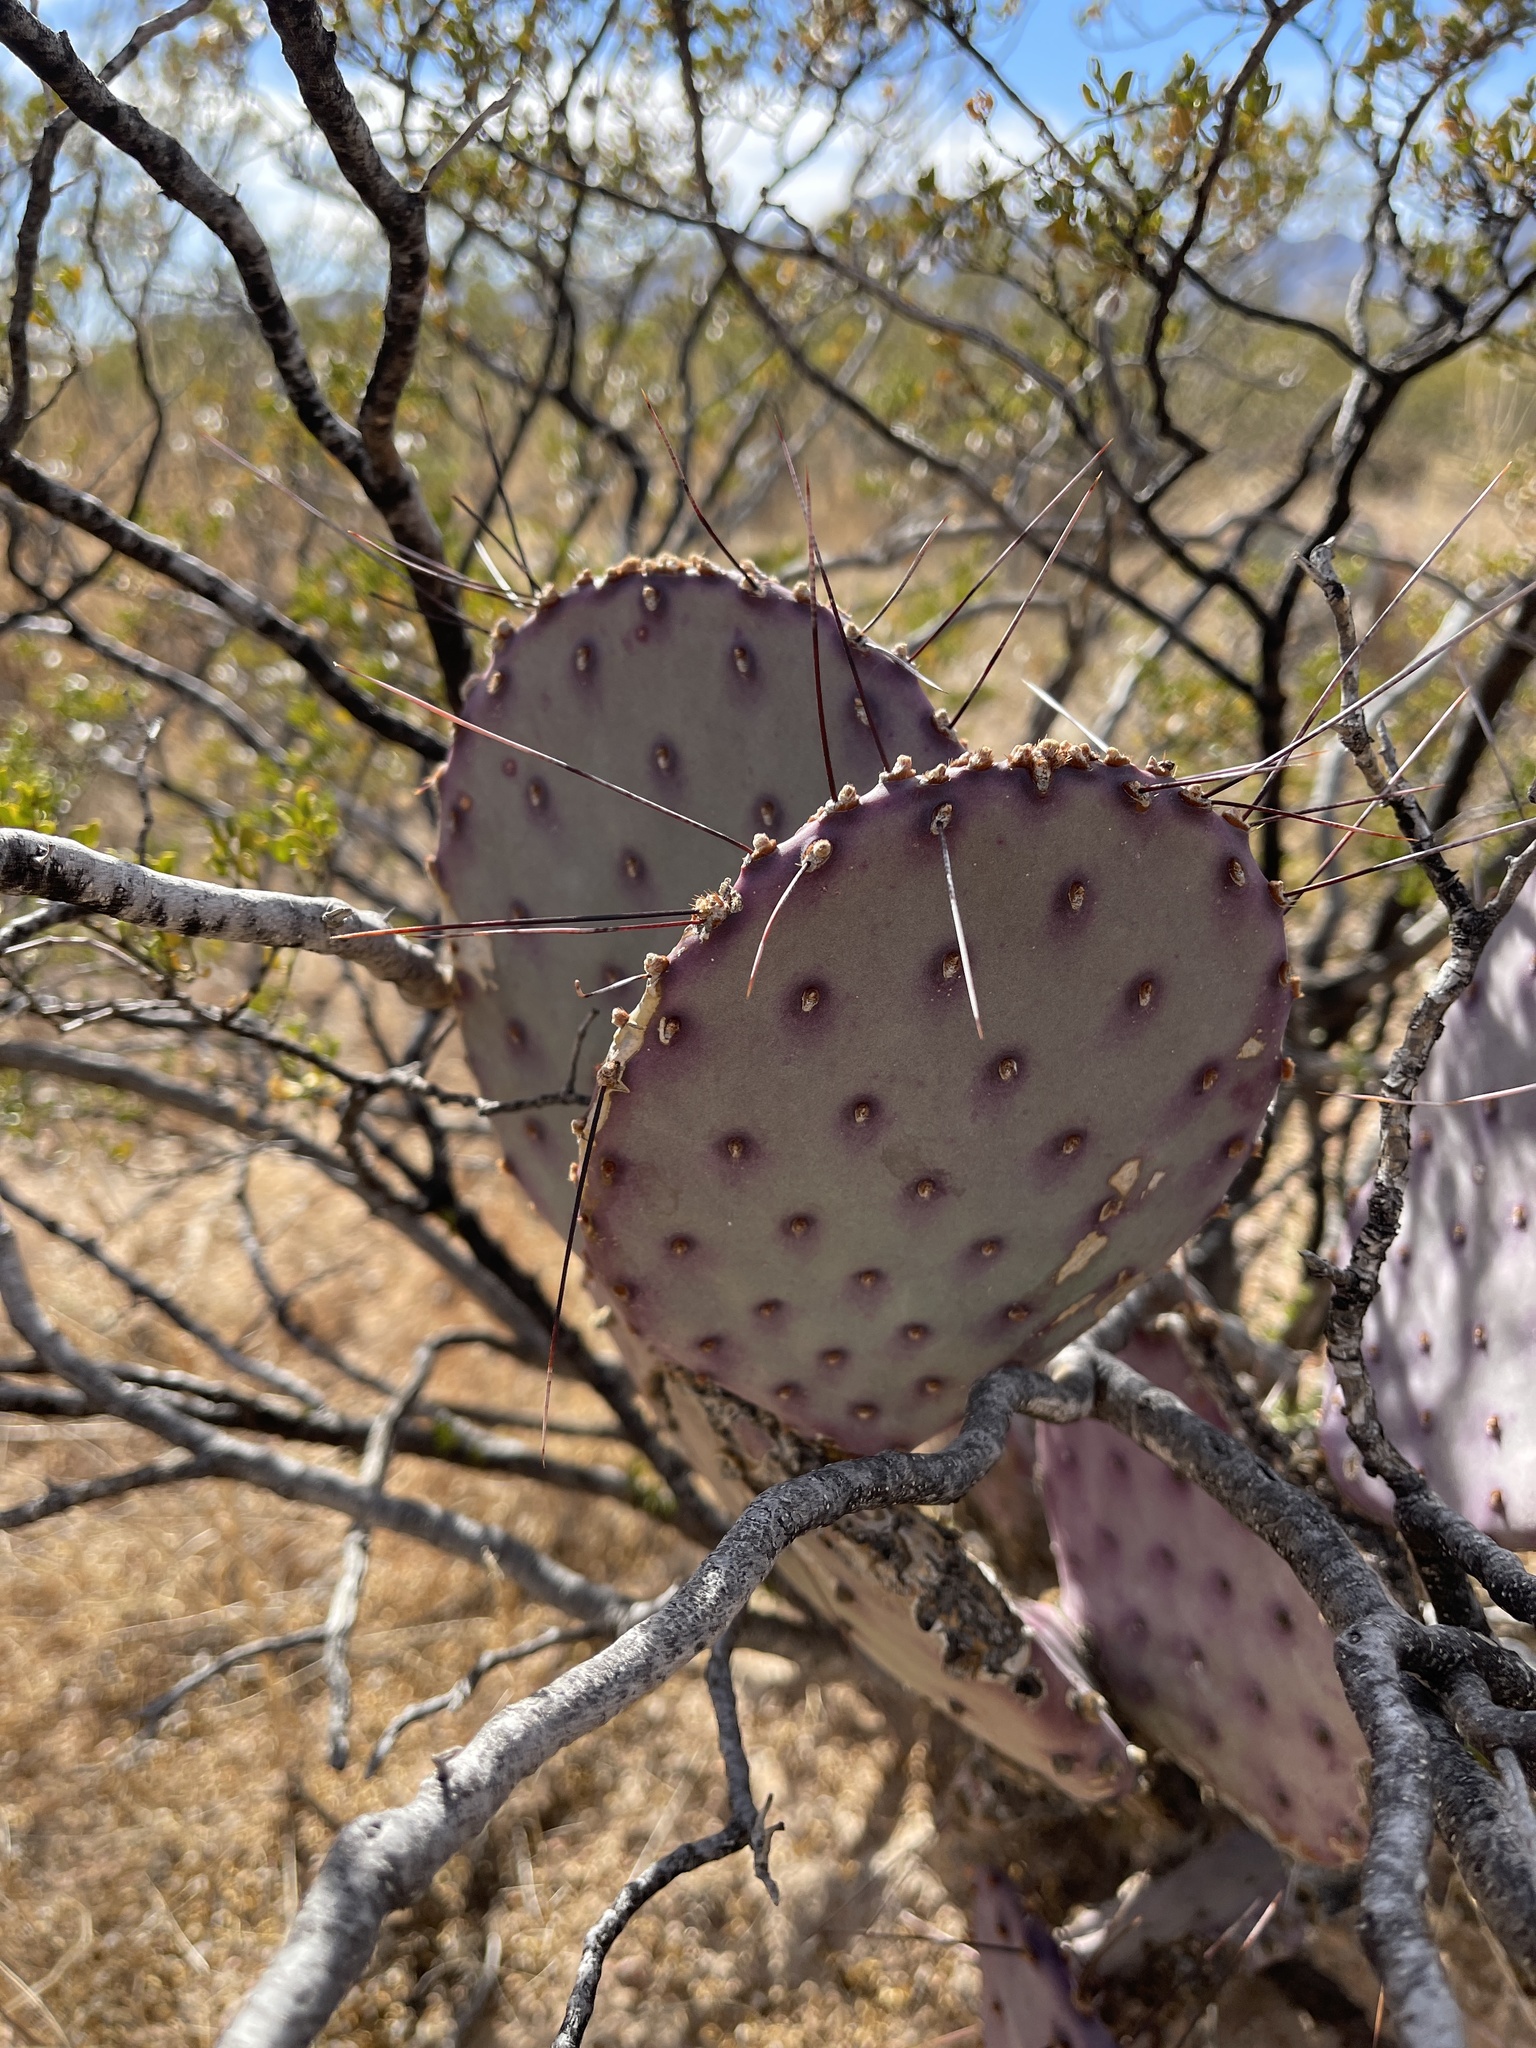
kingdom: Plantae
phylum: Tracheophyta
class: Magnoliopsida
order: Caryophyllales
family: Cactaceae
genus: Opuntia
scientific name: Opuntia macrocentra
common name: Purple prickly-pear
